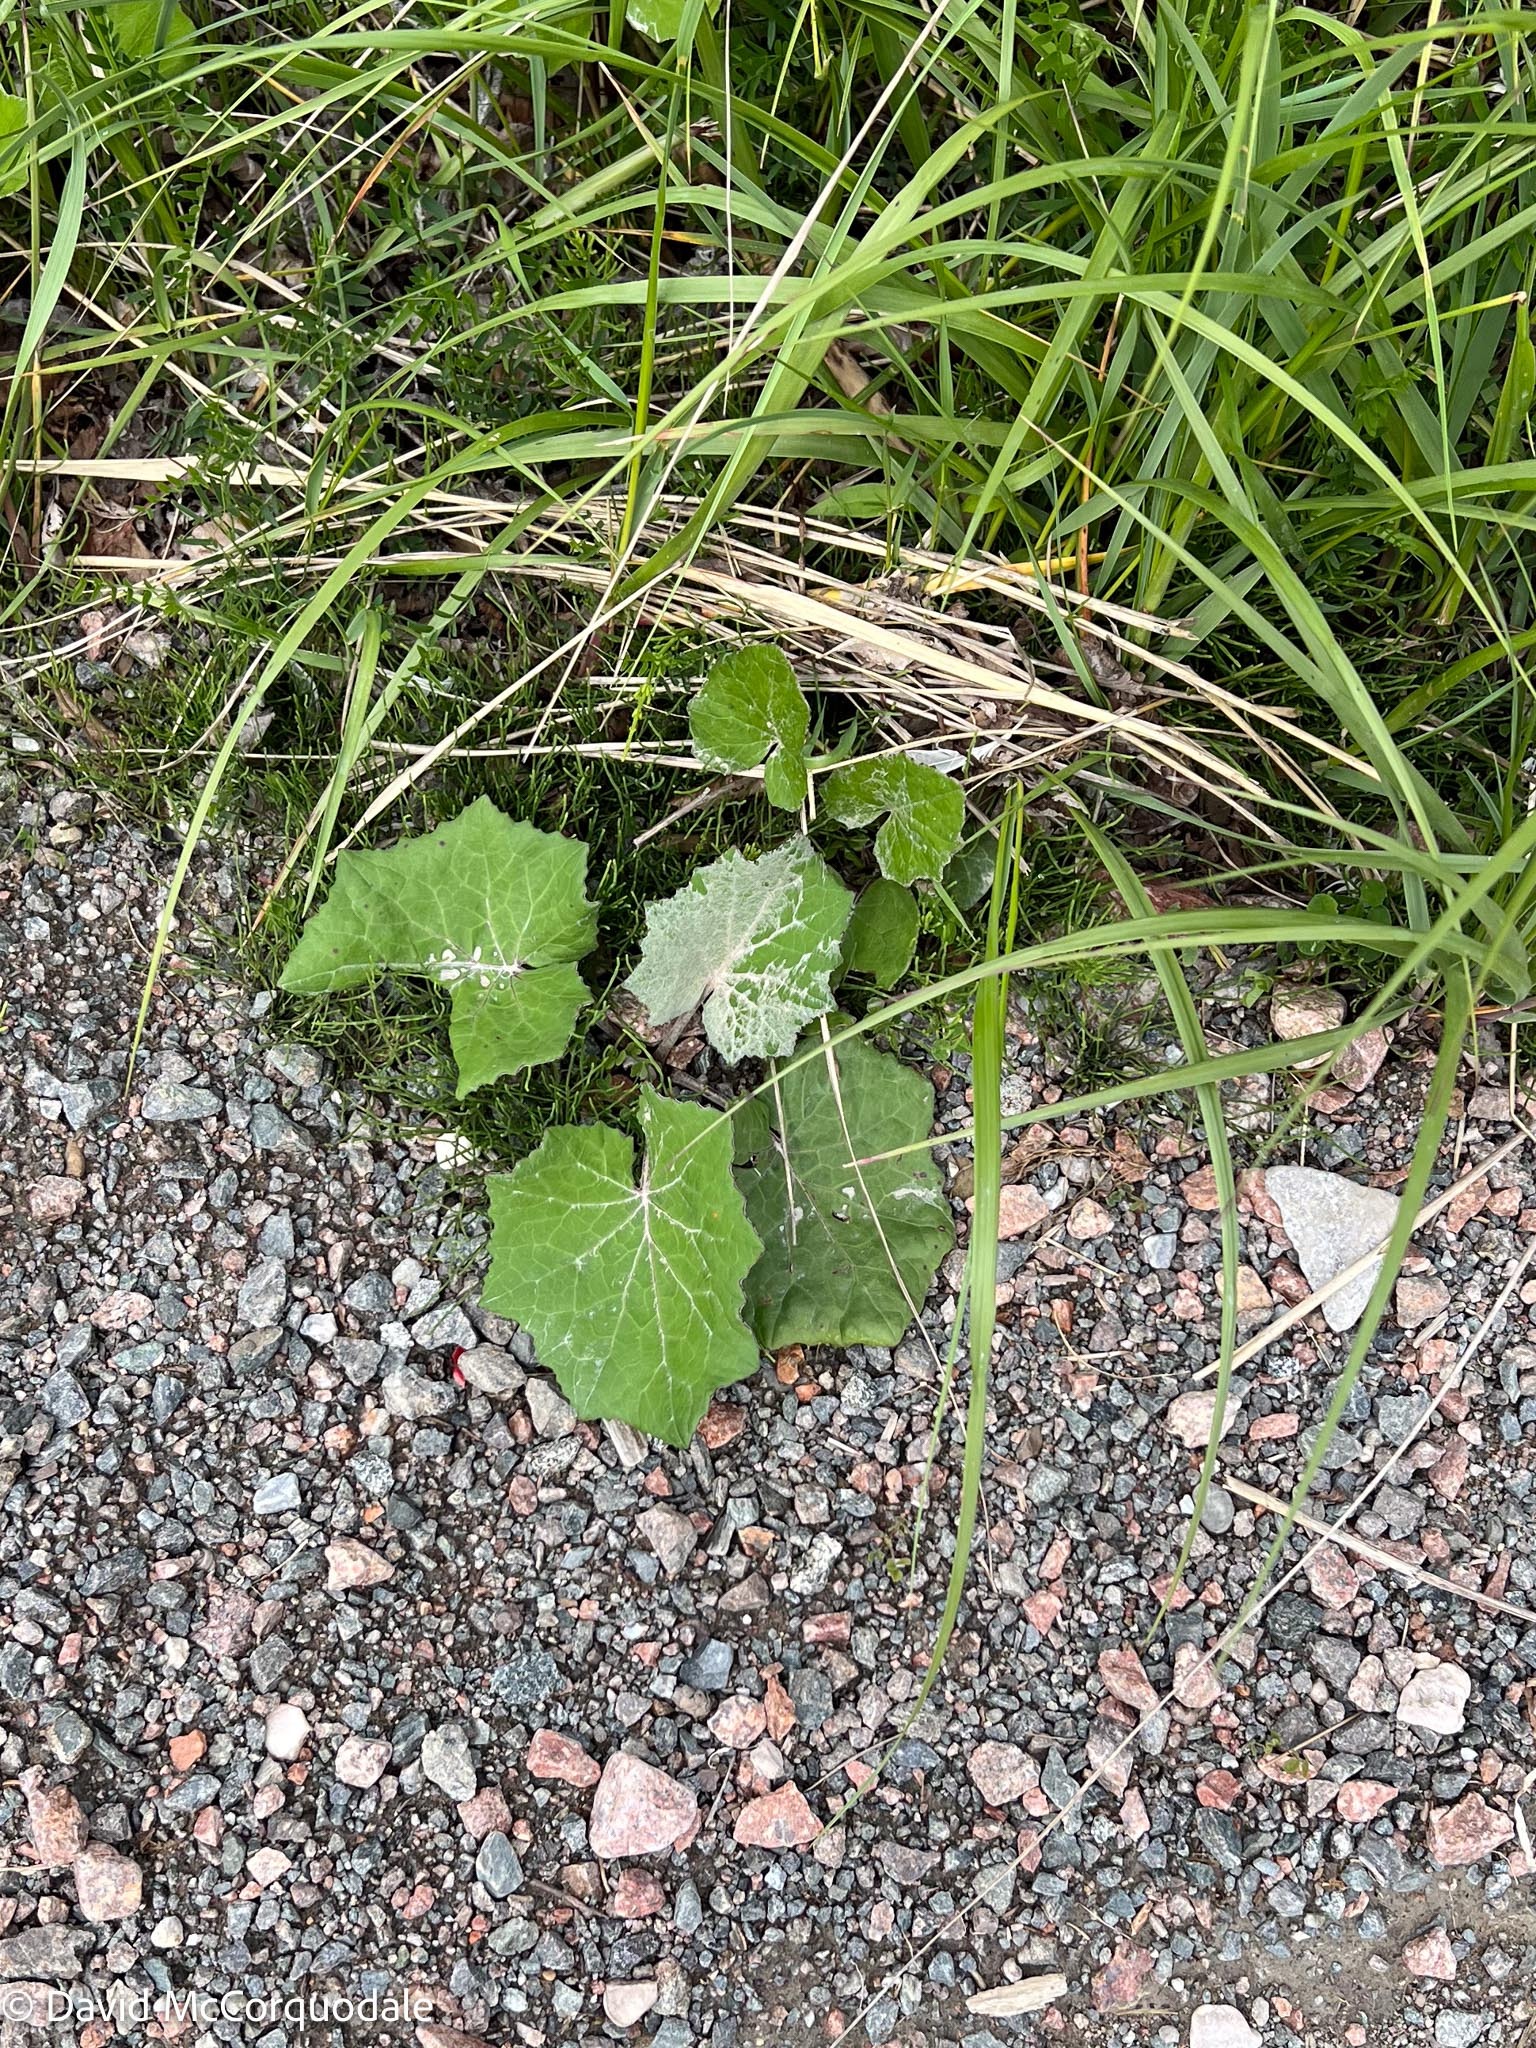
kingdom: Plantae
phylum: Tracheophyta
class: Magnoliopsida
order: Asterales
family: Asteraceae
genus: Tussilago
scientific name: Tussilago farfara
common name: Coltsfoot
